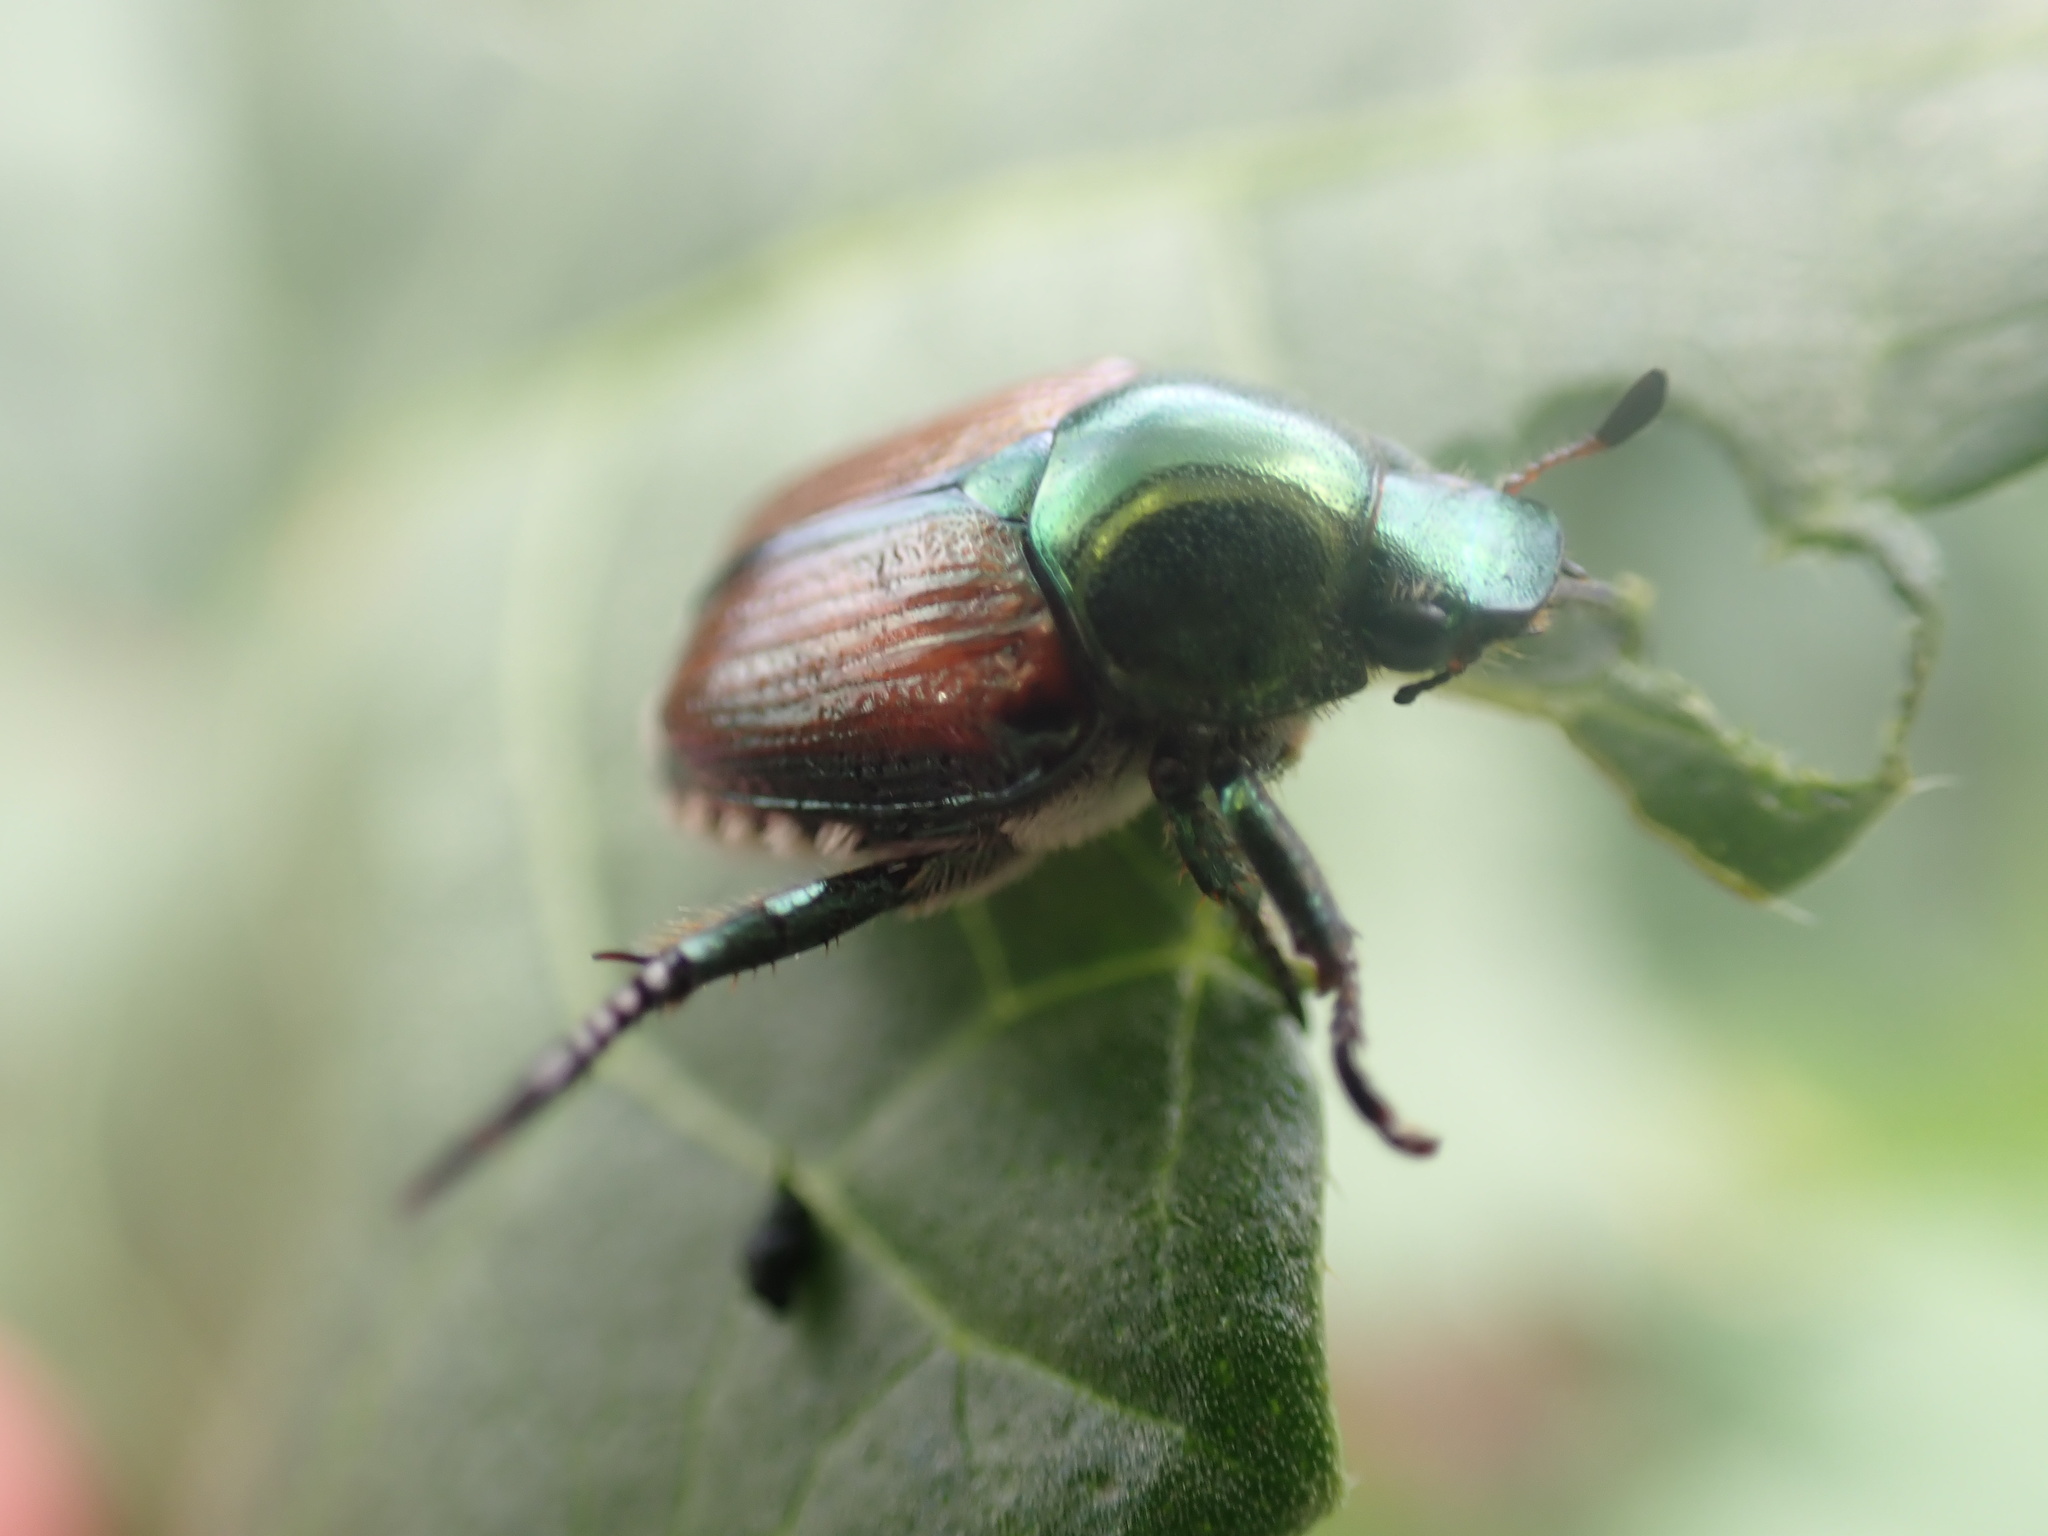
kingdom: Animalia
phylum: Arthropoda
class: Insecta
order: Coleoptera
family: Scarabaeidae
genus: Popillia
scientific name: Popillia japonica
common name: Japanese beetle
